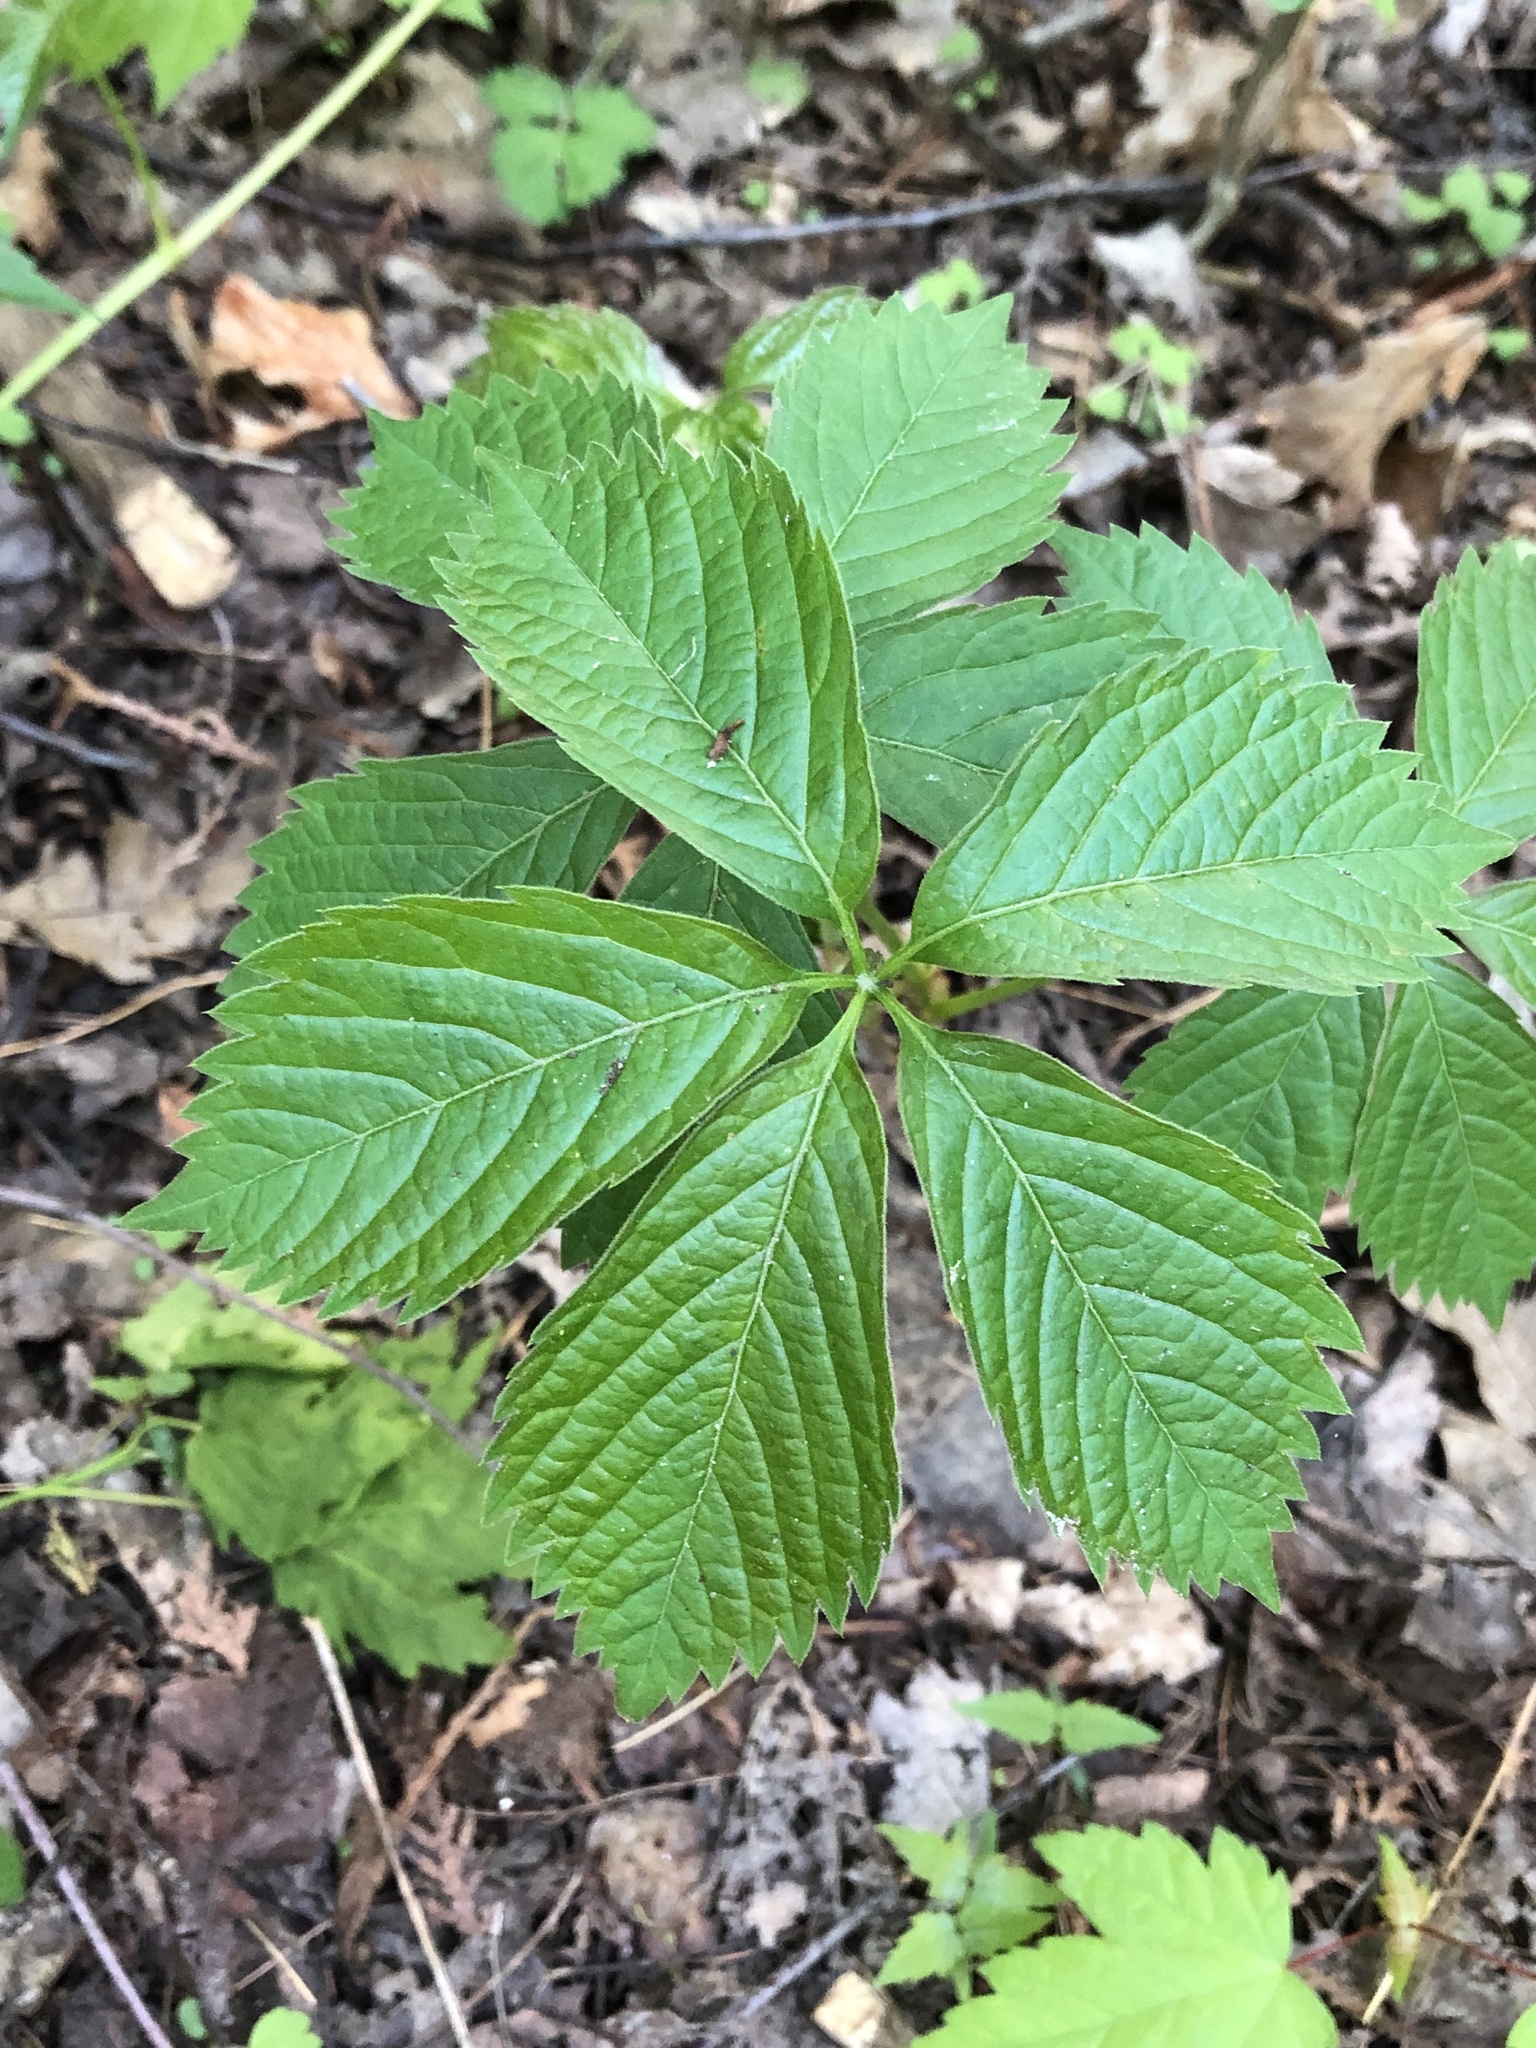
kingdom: Plantae
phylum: Tracheophyta
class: Magnoliopsida
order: Vitales
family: Vitaceae
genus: Parthenocissus
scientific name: Parthenocissus inserta
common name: False virginia-creeper
